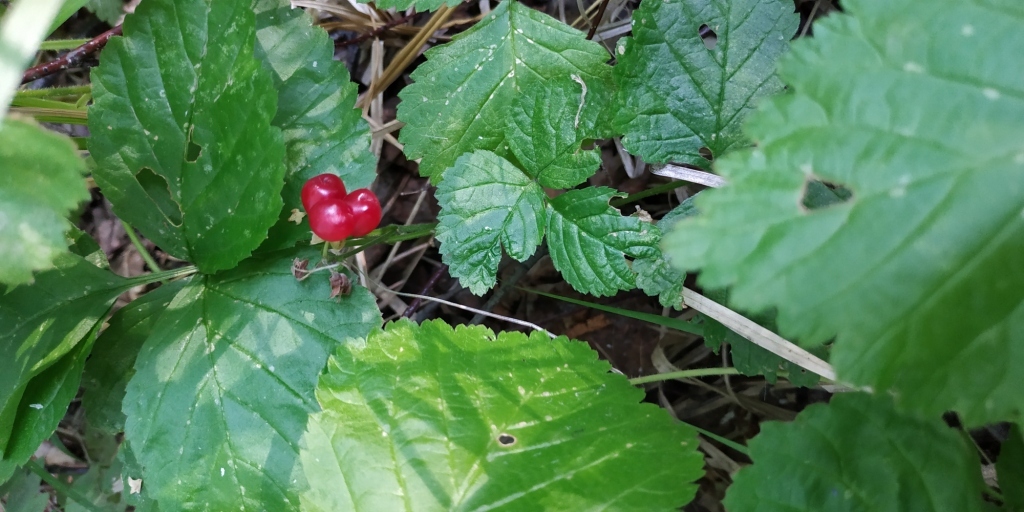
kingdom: Plantae
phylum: Tracheophyta
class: Magnoliopsida
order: Rosales
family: Rosaceae
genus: Rubus
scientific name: Rubus saxatilis
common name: Stone bramble
